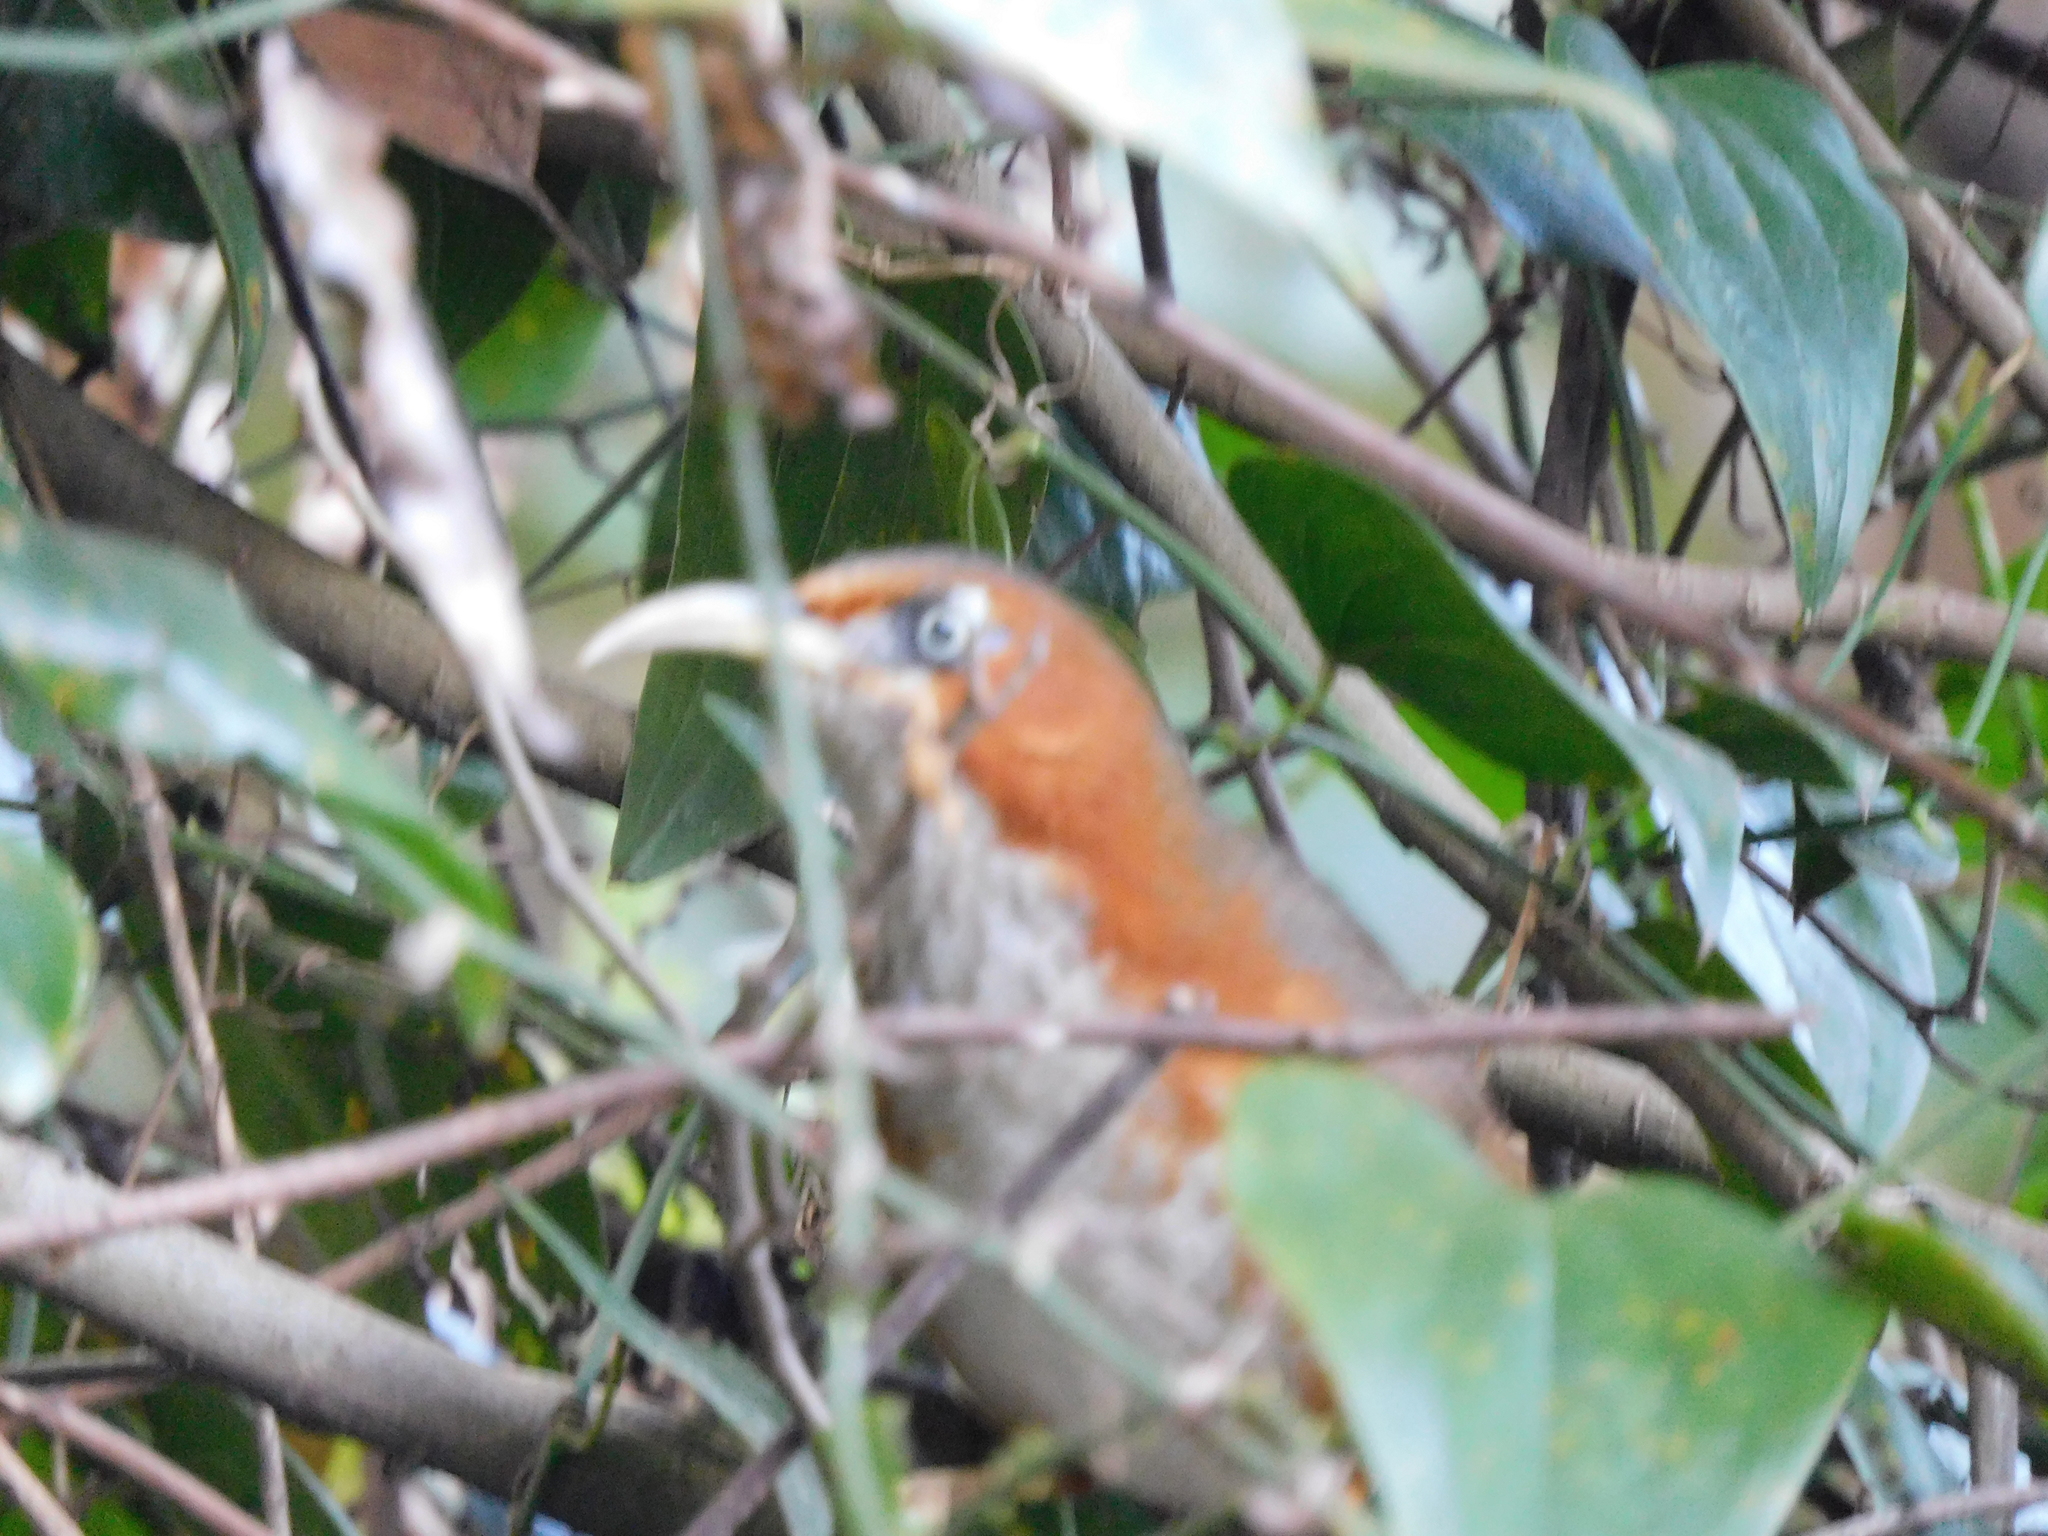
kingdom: Animalia
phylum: Chordata
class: Aves
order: Passeriformes
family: Timaliidae
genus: Pomatorhinus
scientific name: Pomatorhinus erythrogenys
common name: Rusty-cheeked scimitar babbler
